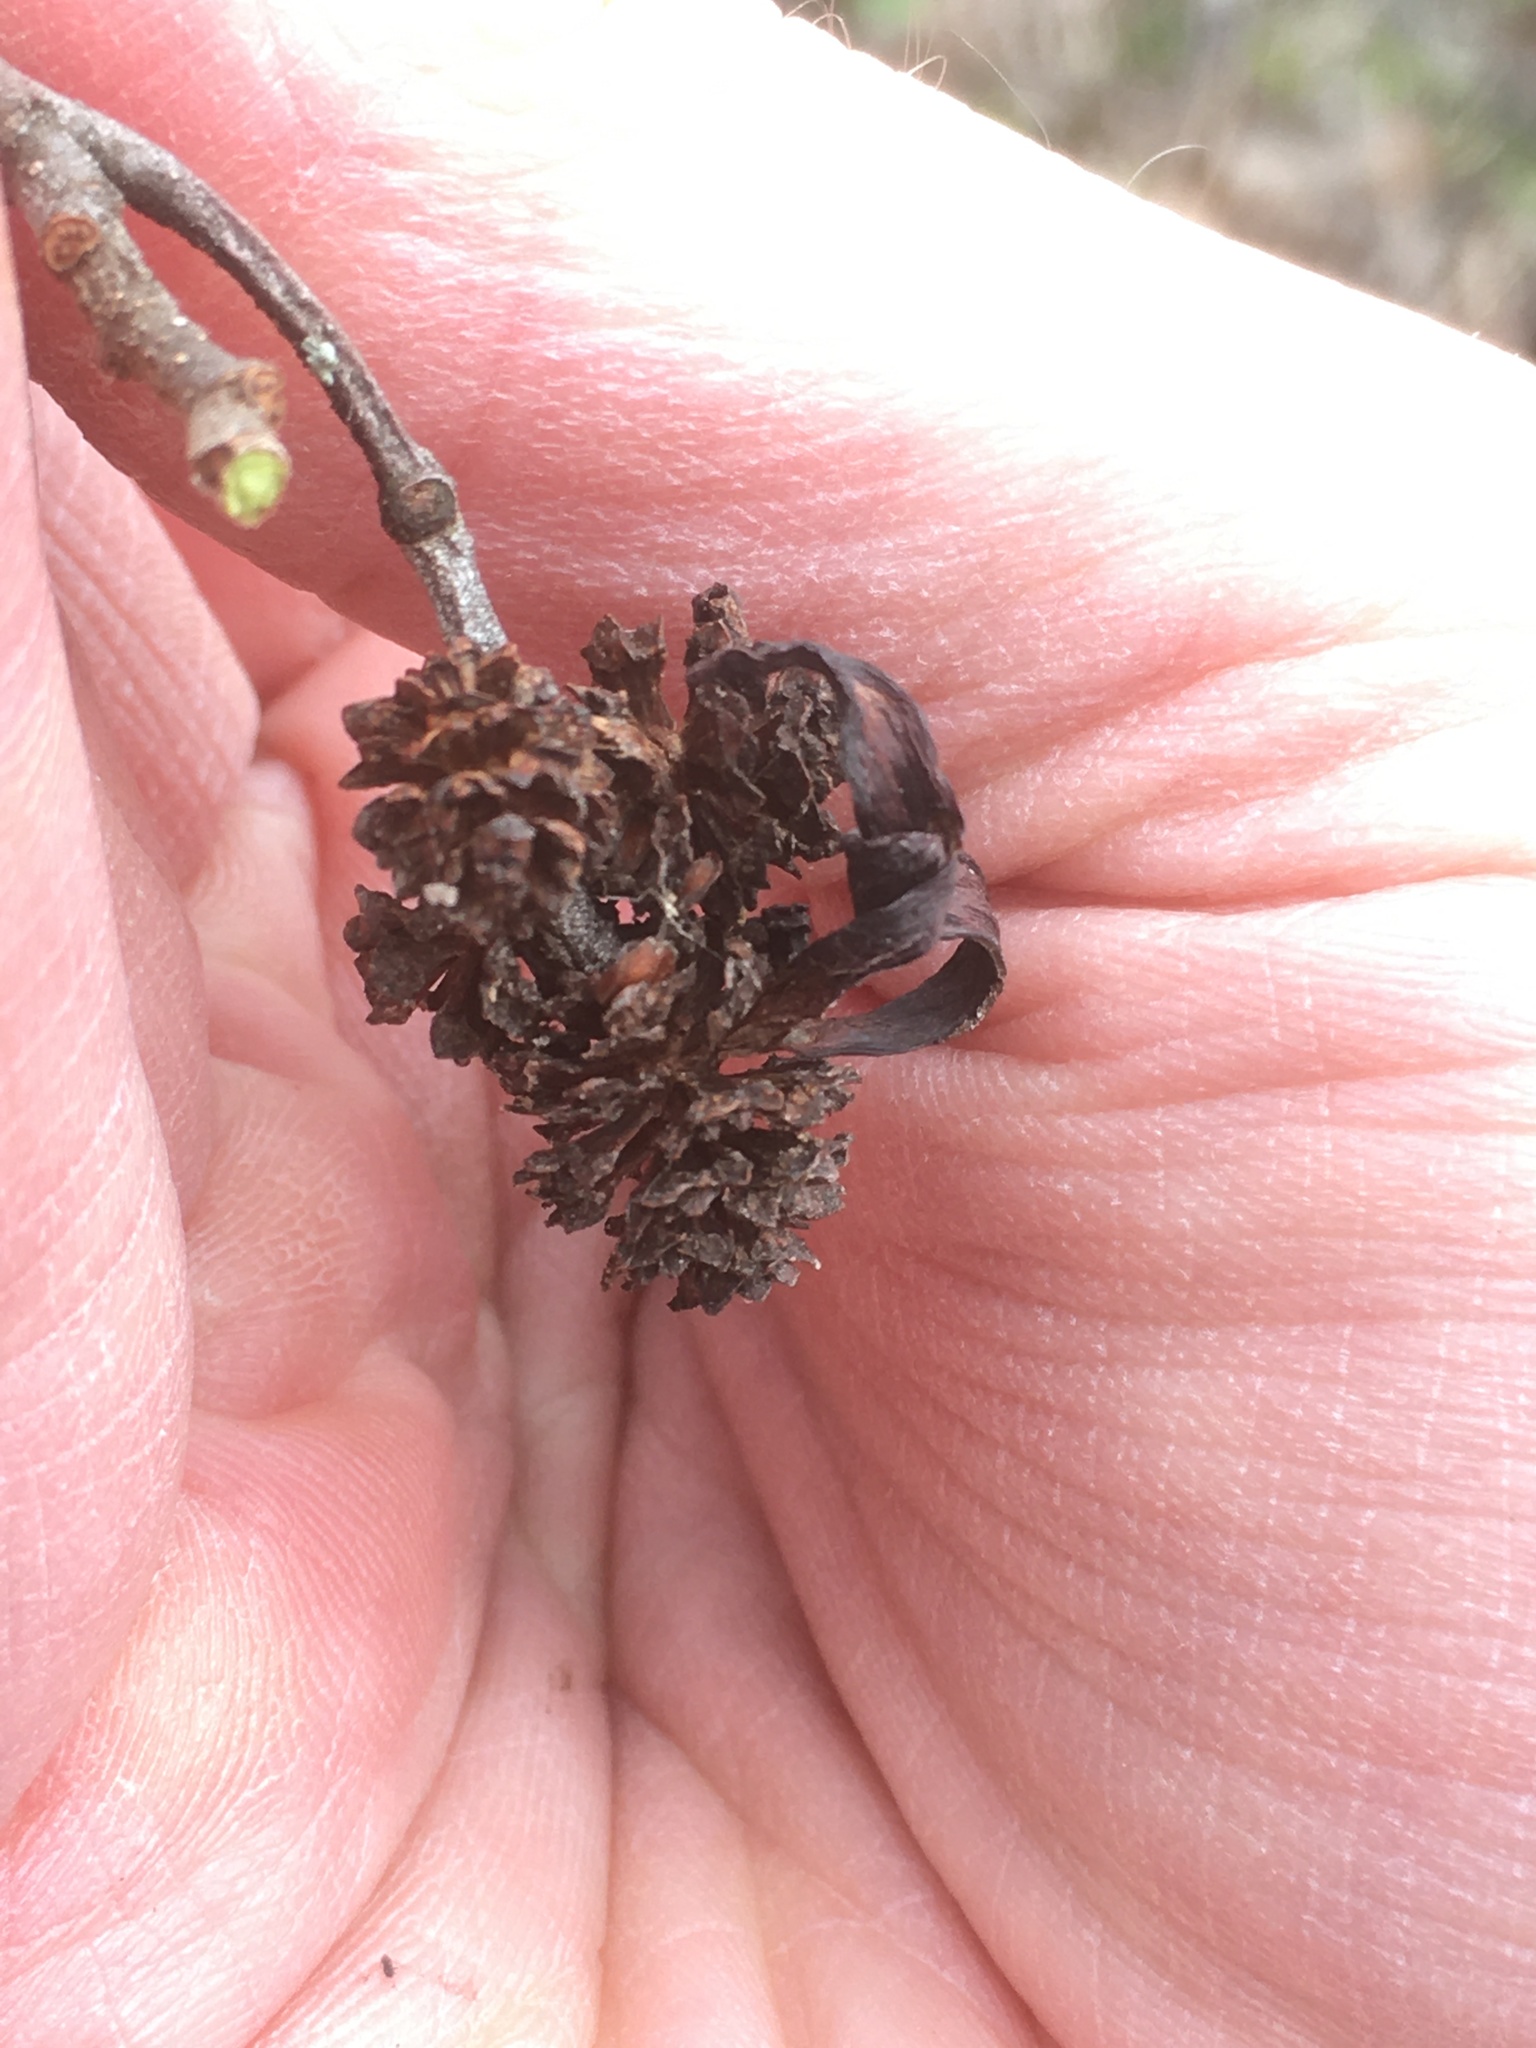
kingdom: Fungi
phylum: Ascomycota
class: Taphrinomycetes
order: Taphrinales
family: Taphrinaceae
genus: Taphrina
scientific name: Taphrina robinsoniana
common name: Eastern american alder tongue gall fungus
